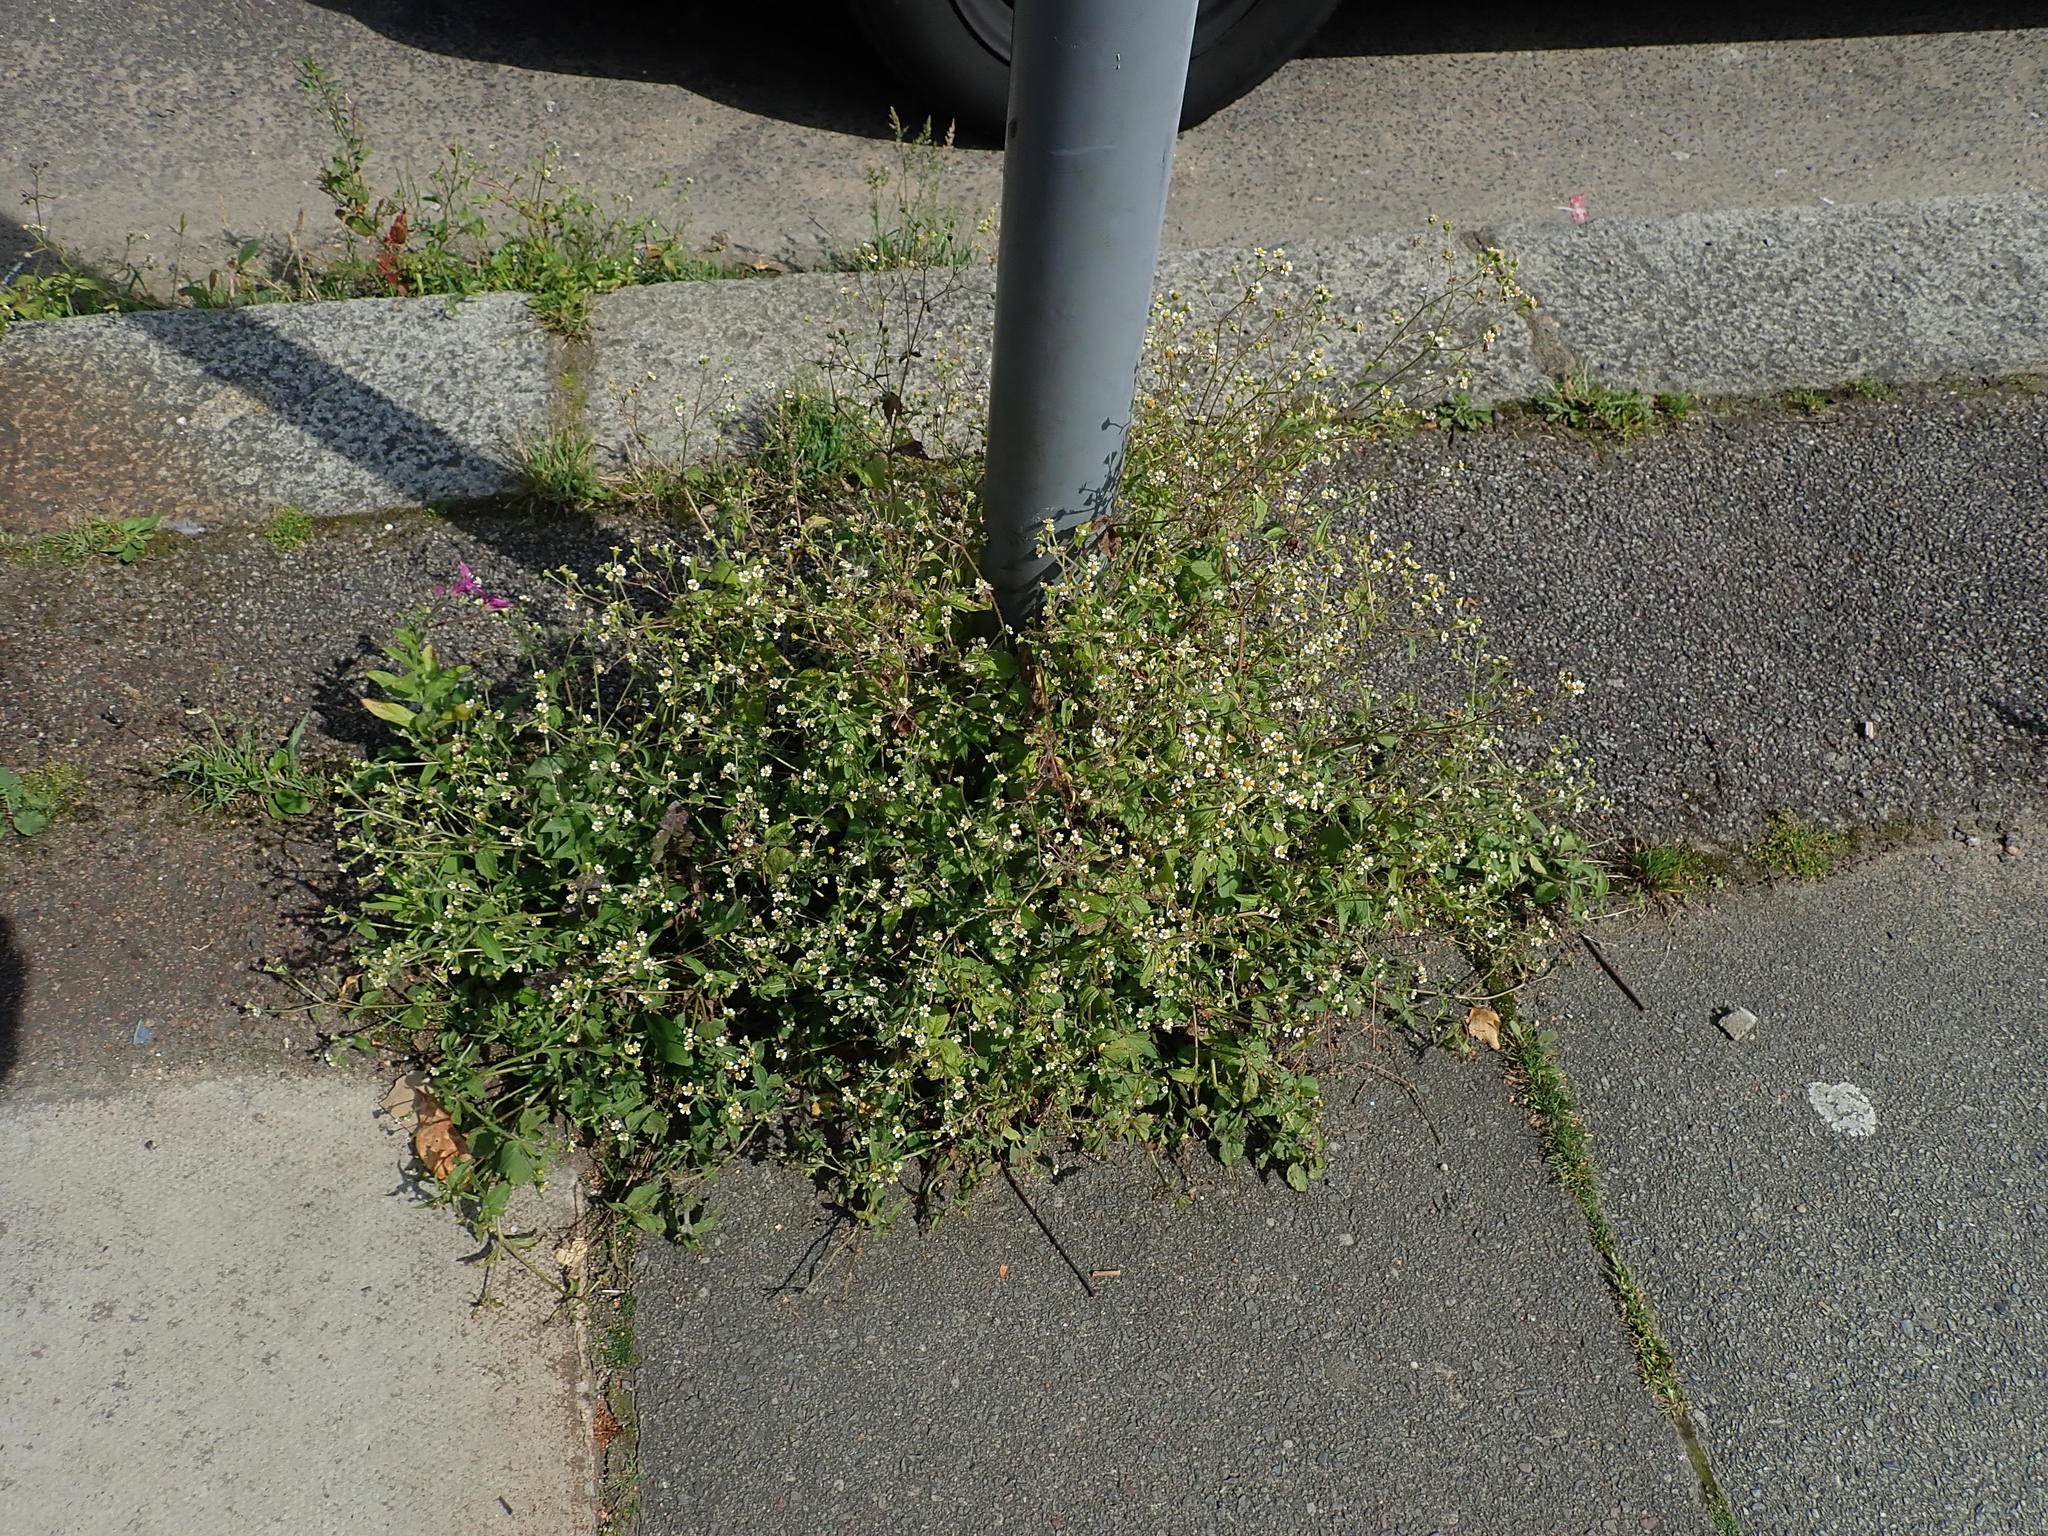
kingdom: Plantae
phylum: Tracheophyta
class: Magnoliopsida
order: Asterales
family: Asteraceae
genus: Galinsoga
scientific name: Galinsoga quadriradiata
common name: Shaggy soldier
